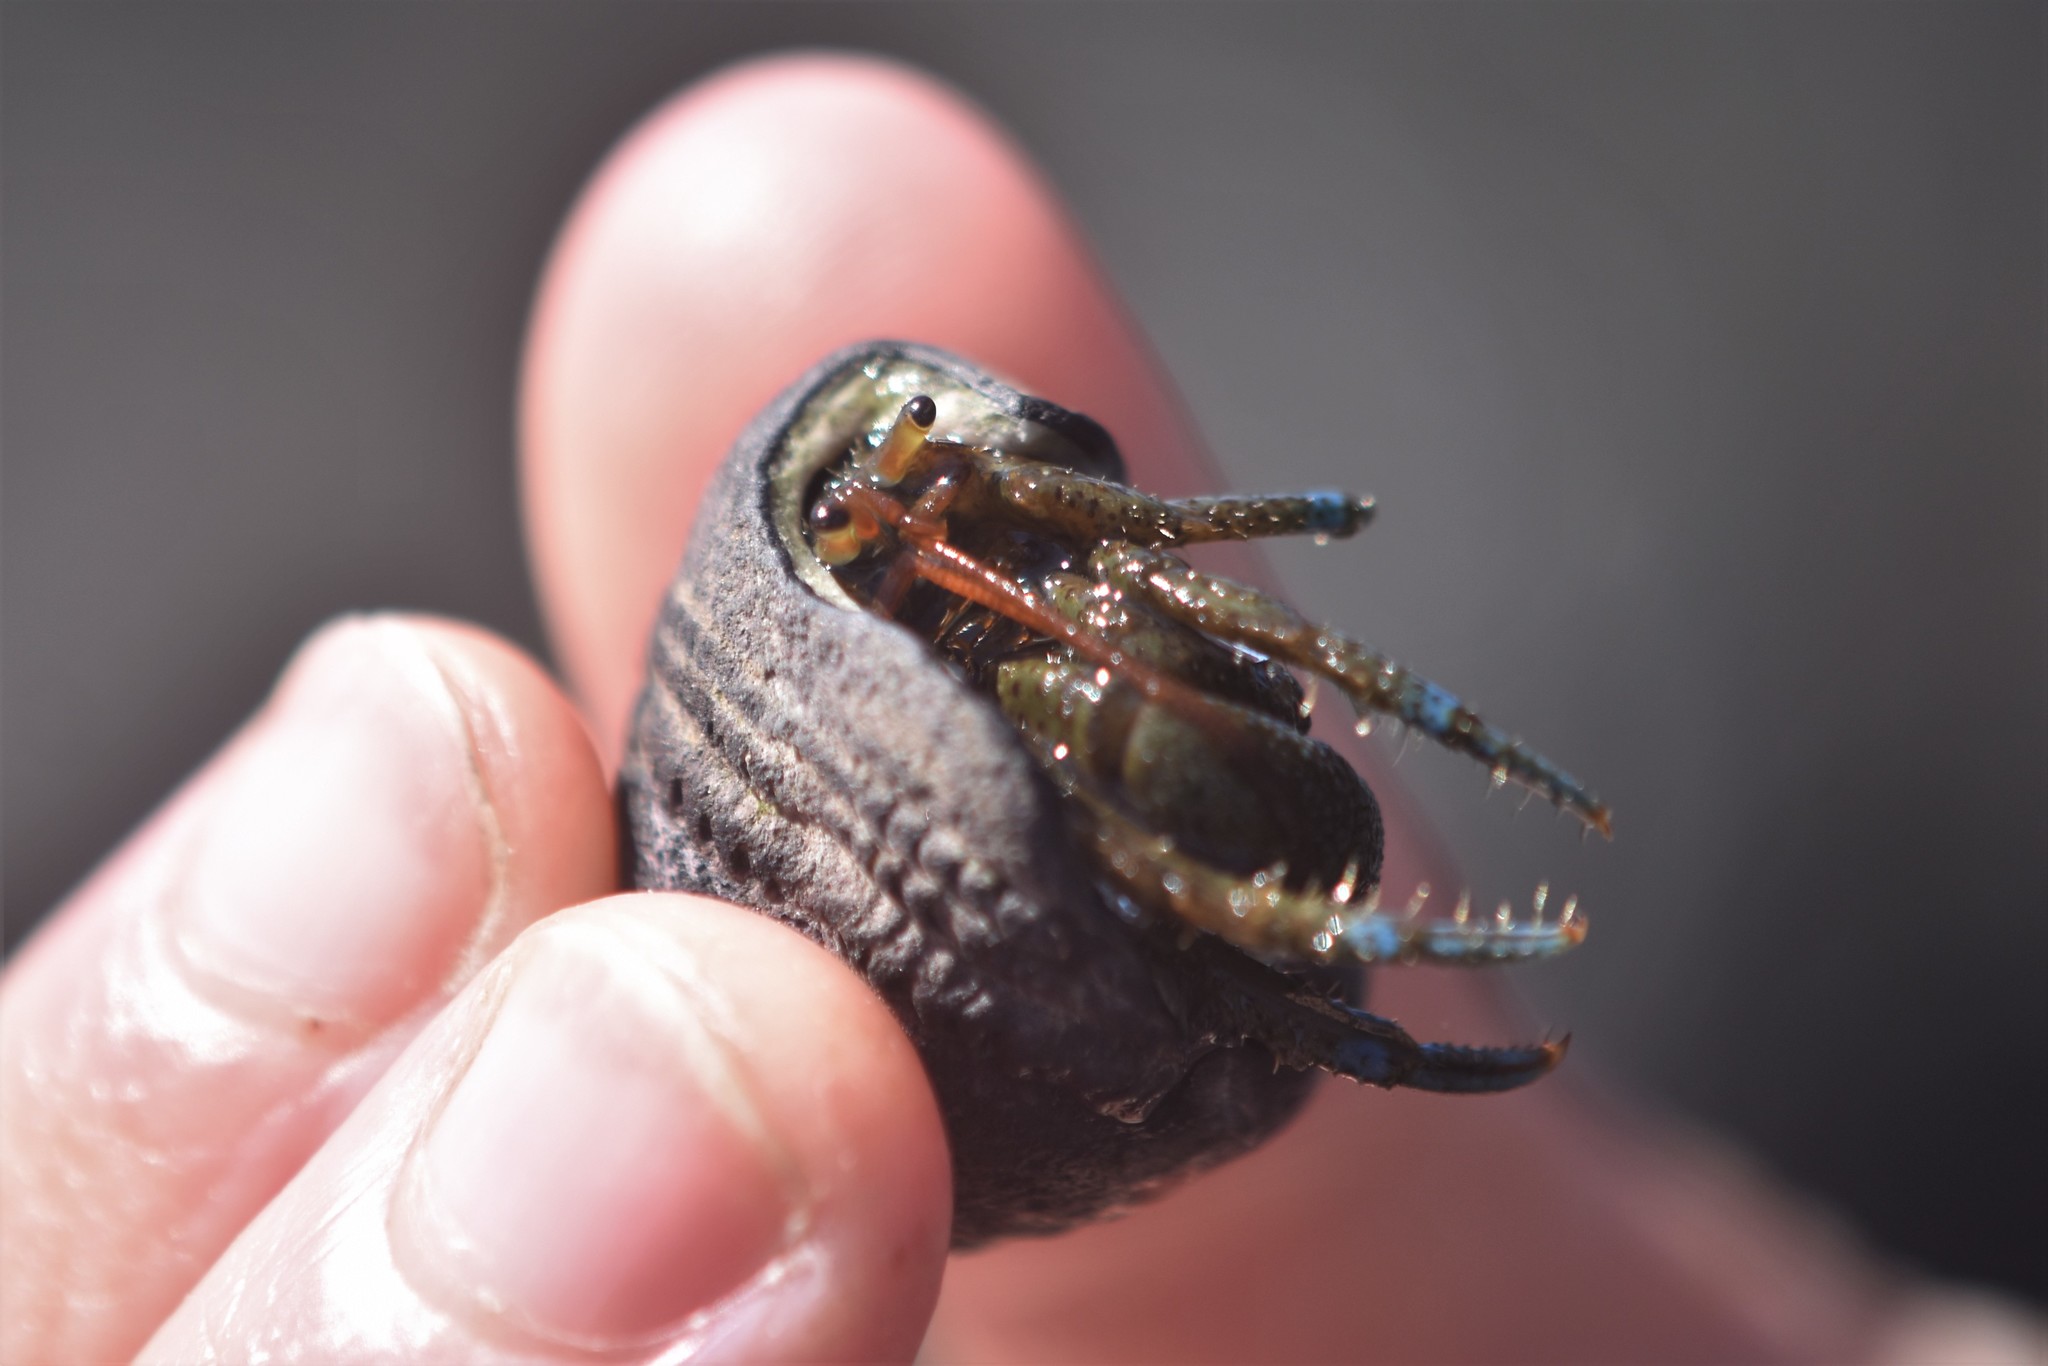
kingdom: Animalia
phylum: Arthropoda
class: Malacostraca
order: Decapoda
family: Paguridae
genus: Pagurus
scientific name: Pagurus samuelis
